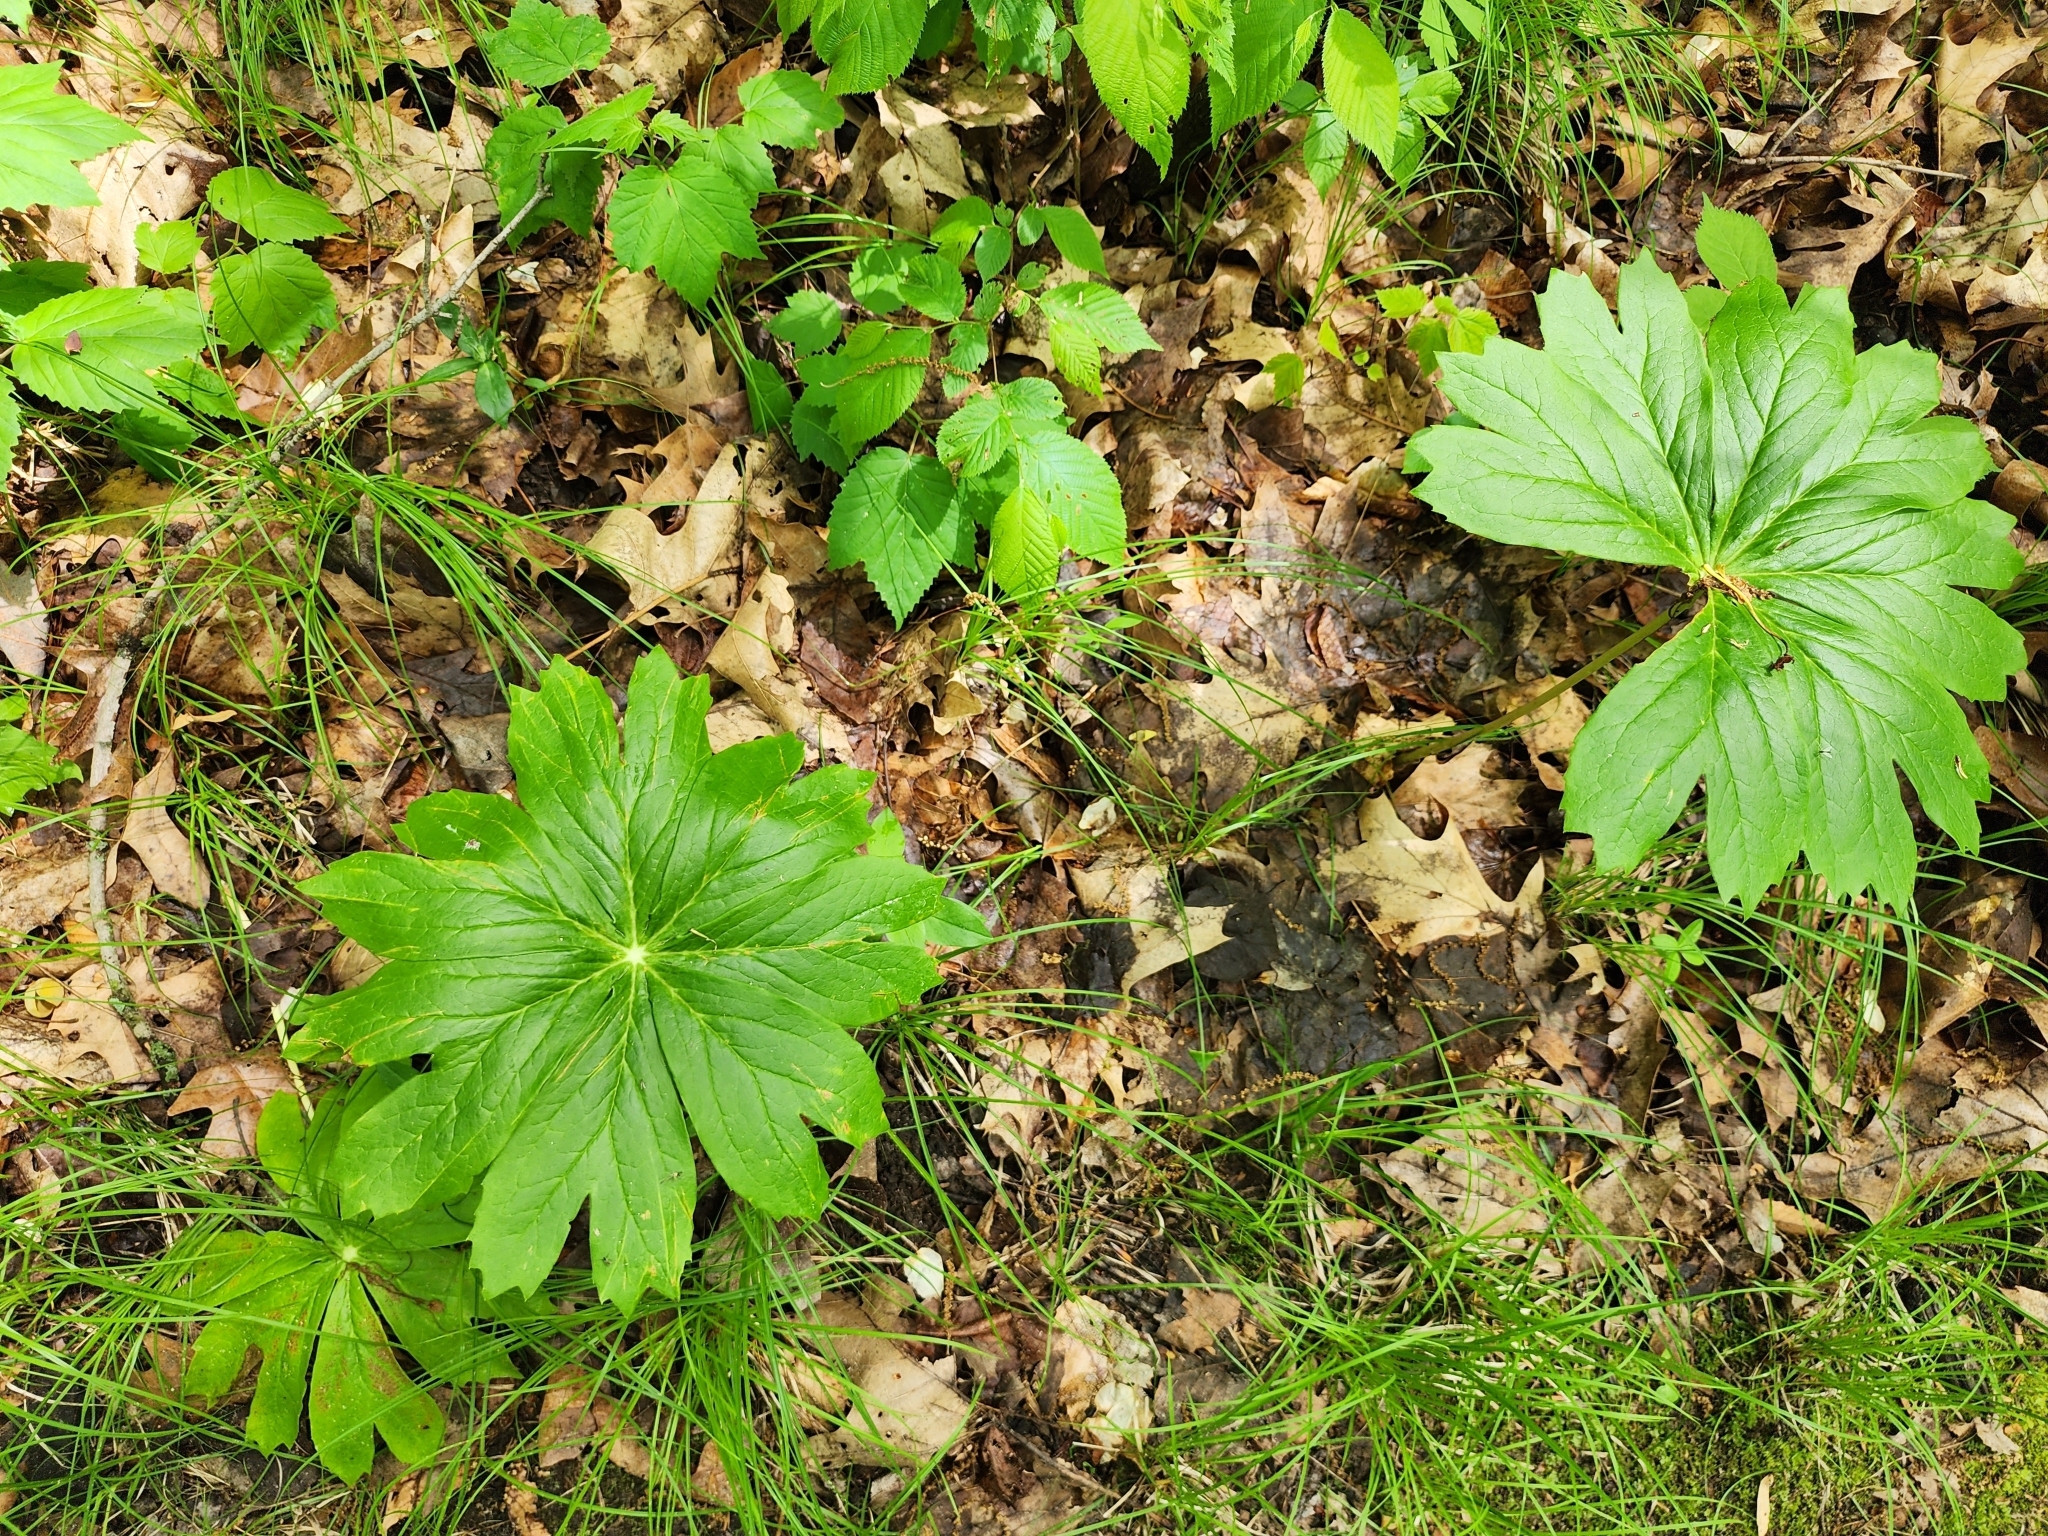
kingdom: Plantae
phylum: Tracheophyta
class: Magnoliopsida
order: Ranunculales
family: Berberidaceae
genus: Podophyllum
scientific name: Podophyllum peltatum
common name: Wild mandrake
